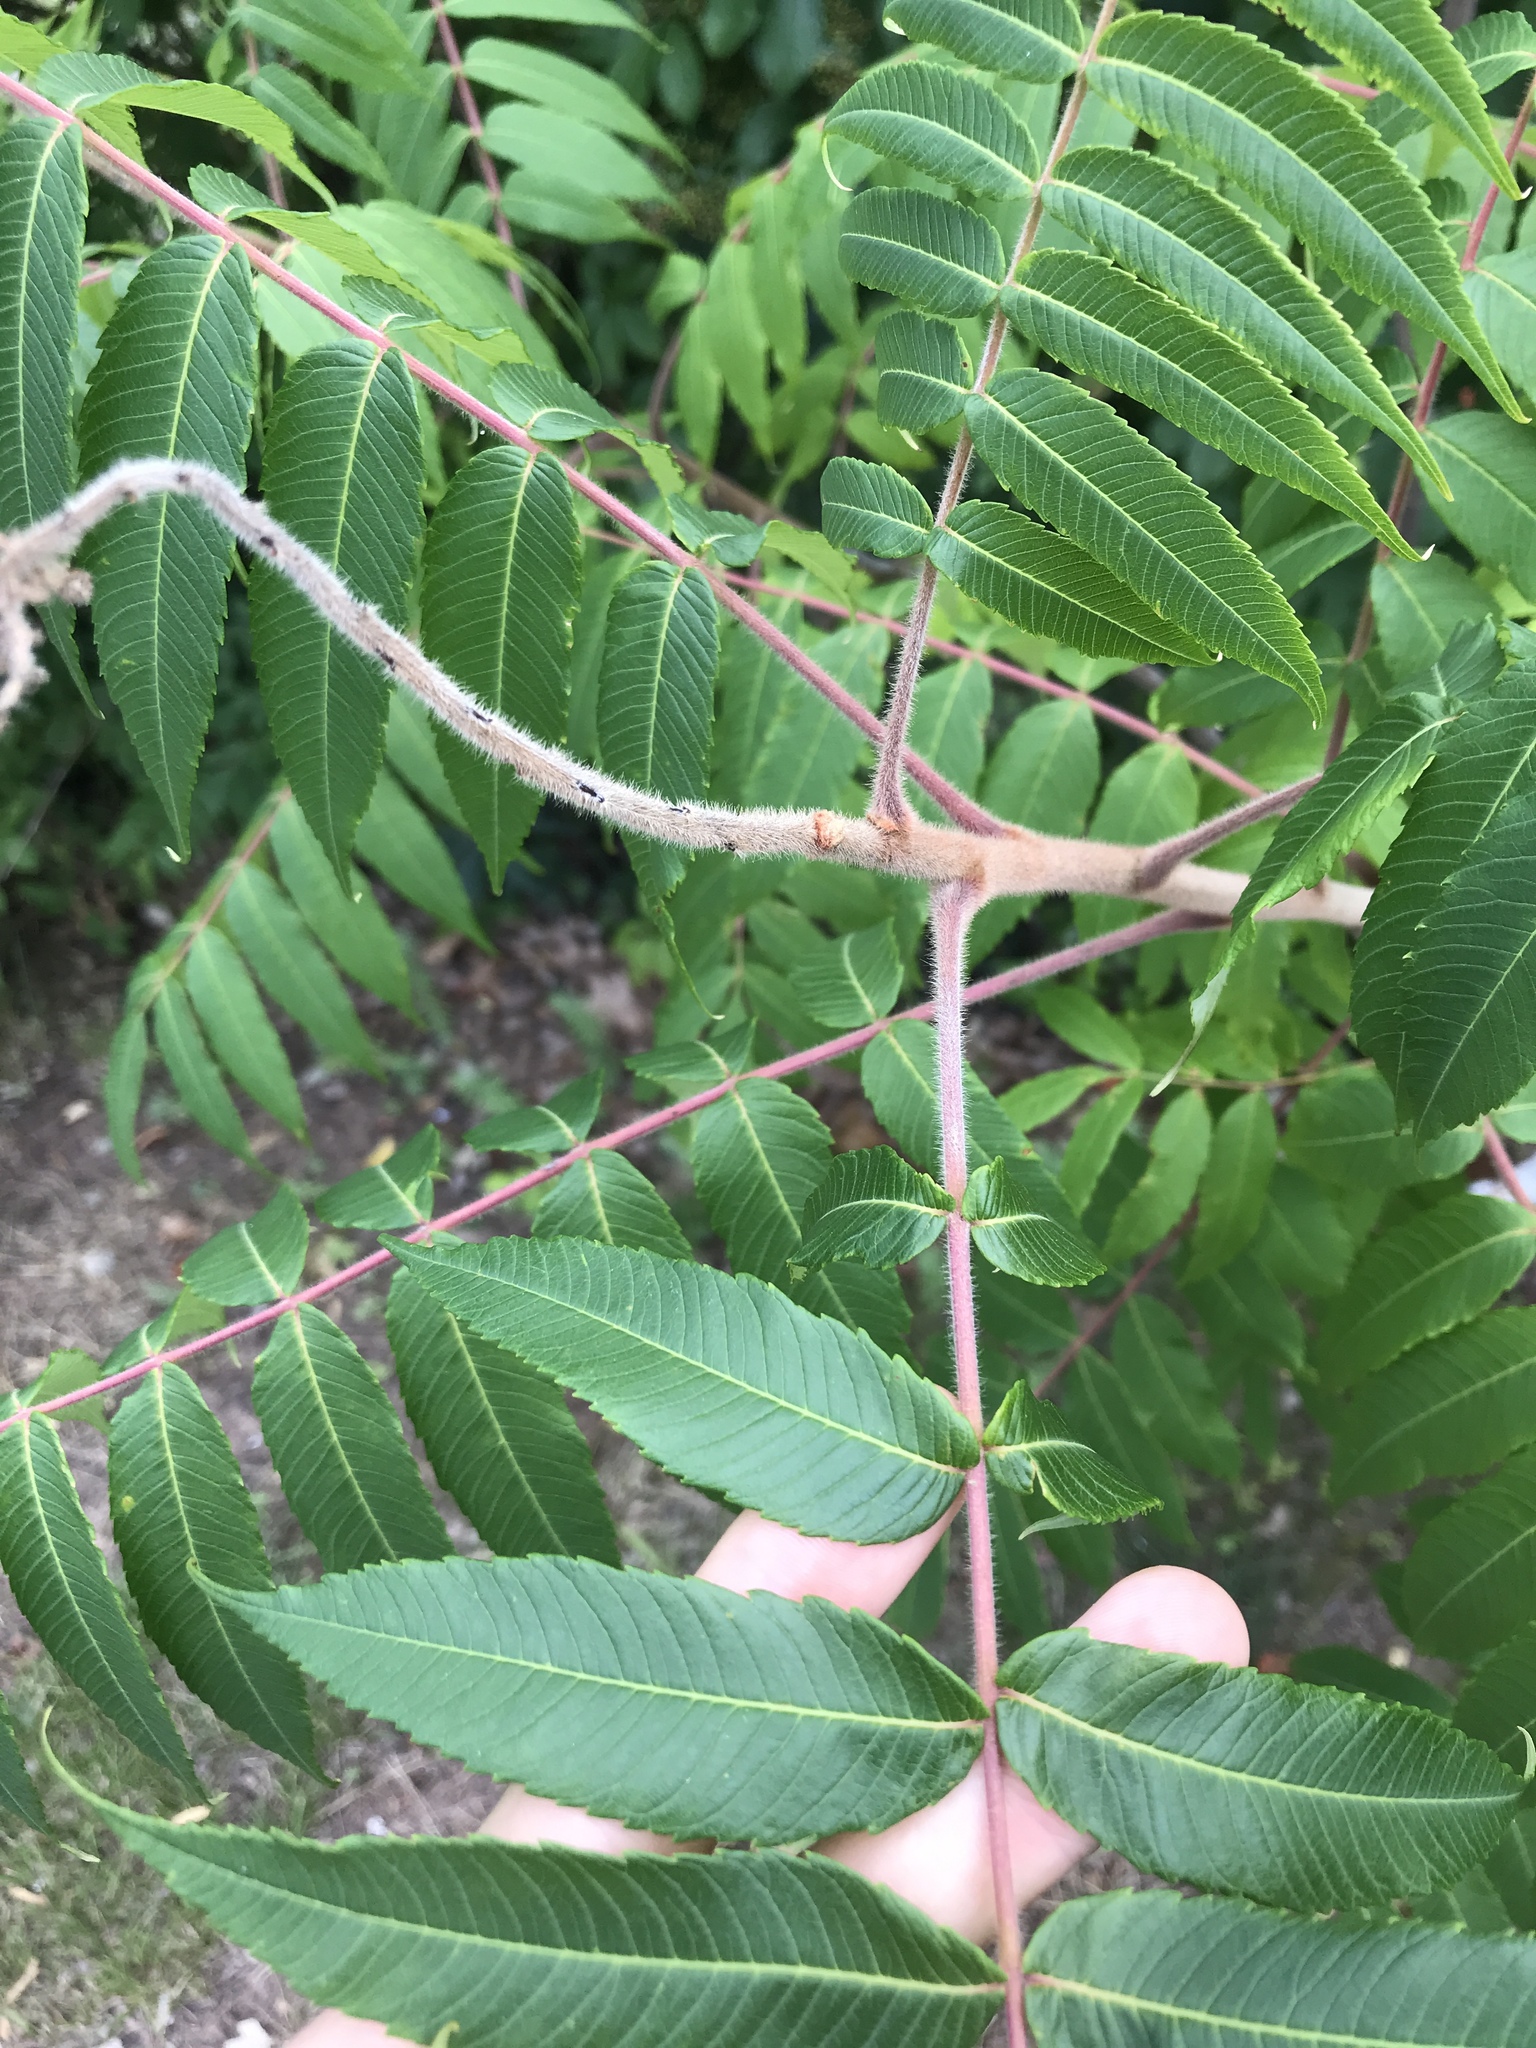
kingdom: Plantae
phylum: Tracheophyta
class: Magnoliopsida
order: Sapindales
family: Anacardiaceae
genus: Rhus
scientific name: Rhus typhina
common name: Staghorn sumac
